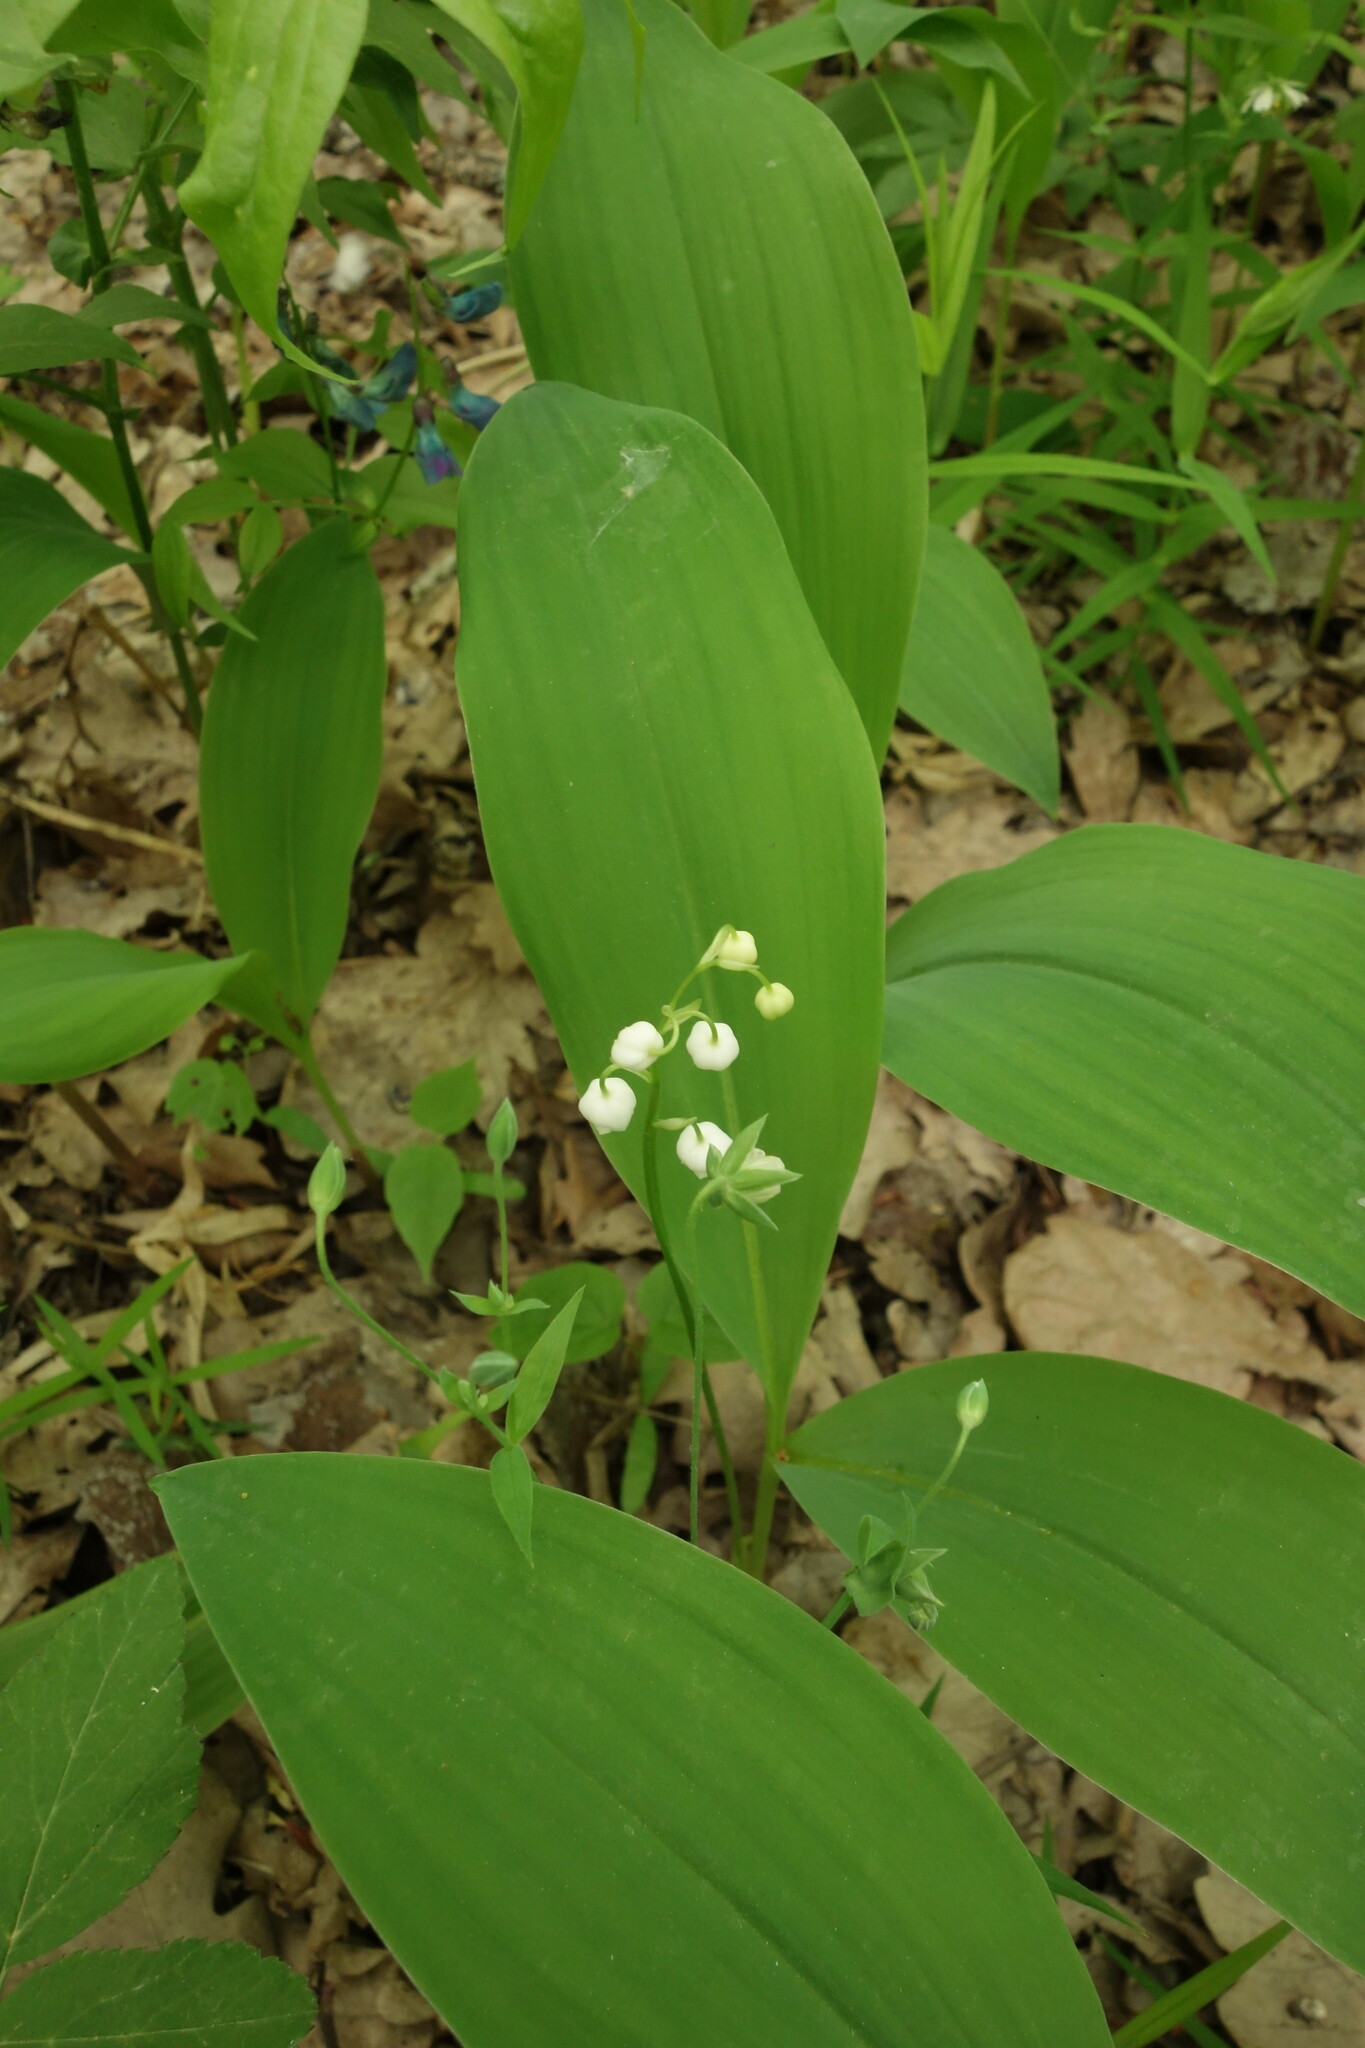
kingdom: Plantae
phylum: Tracheophyta
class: Liliopsida
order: Asparagales
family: Asparagaceae
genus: Convallaria
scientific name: Convallaria majalis
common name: Lily-of-the-valley
